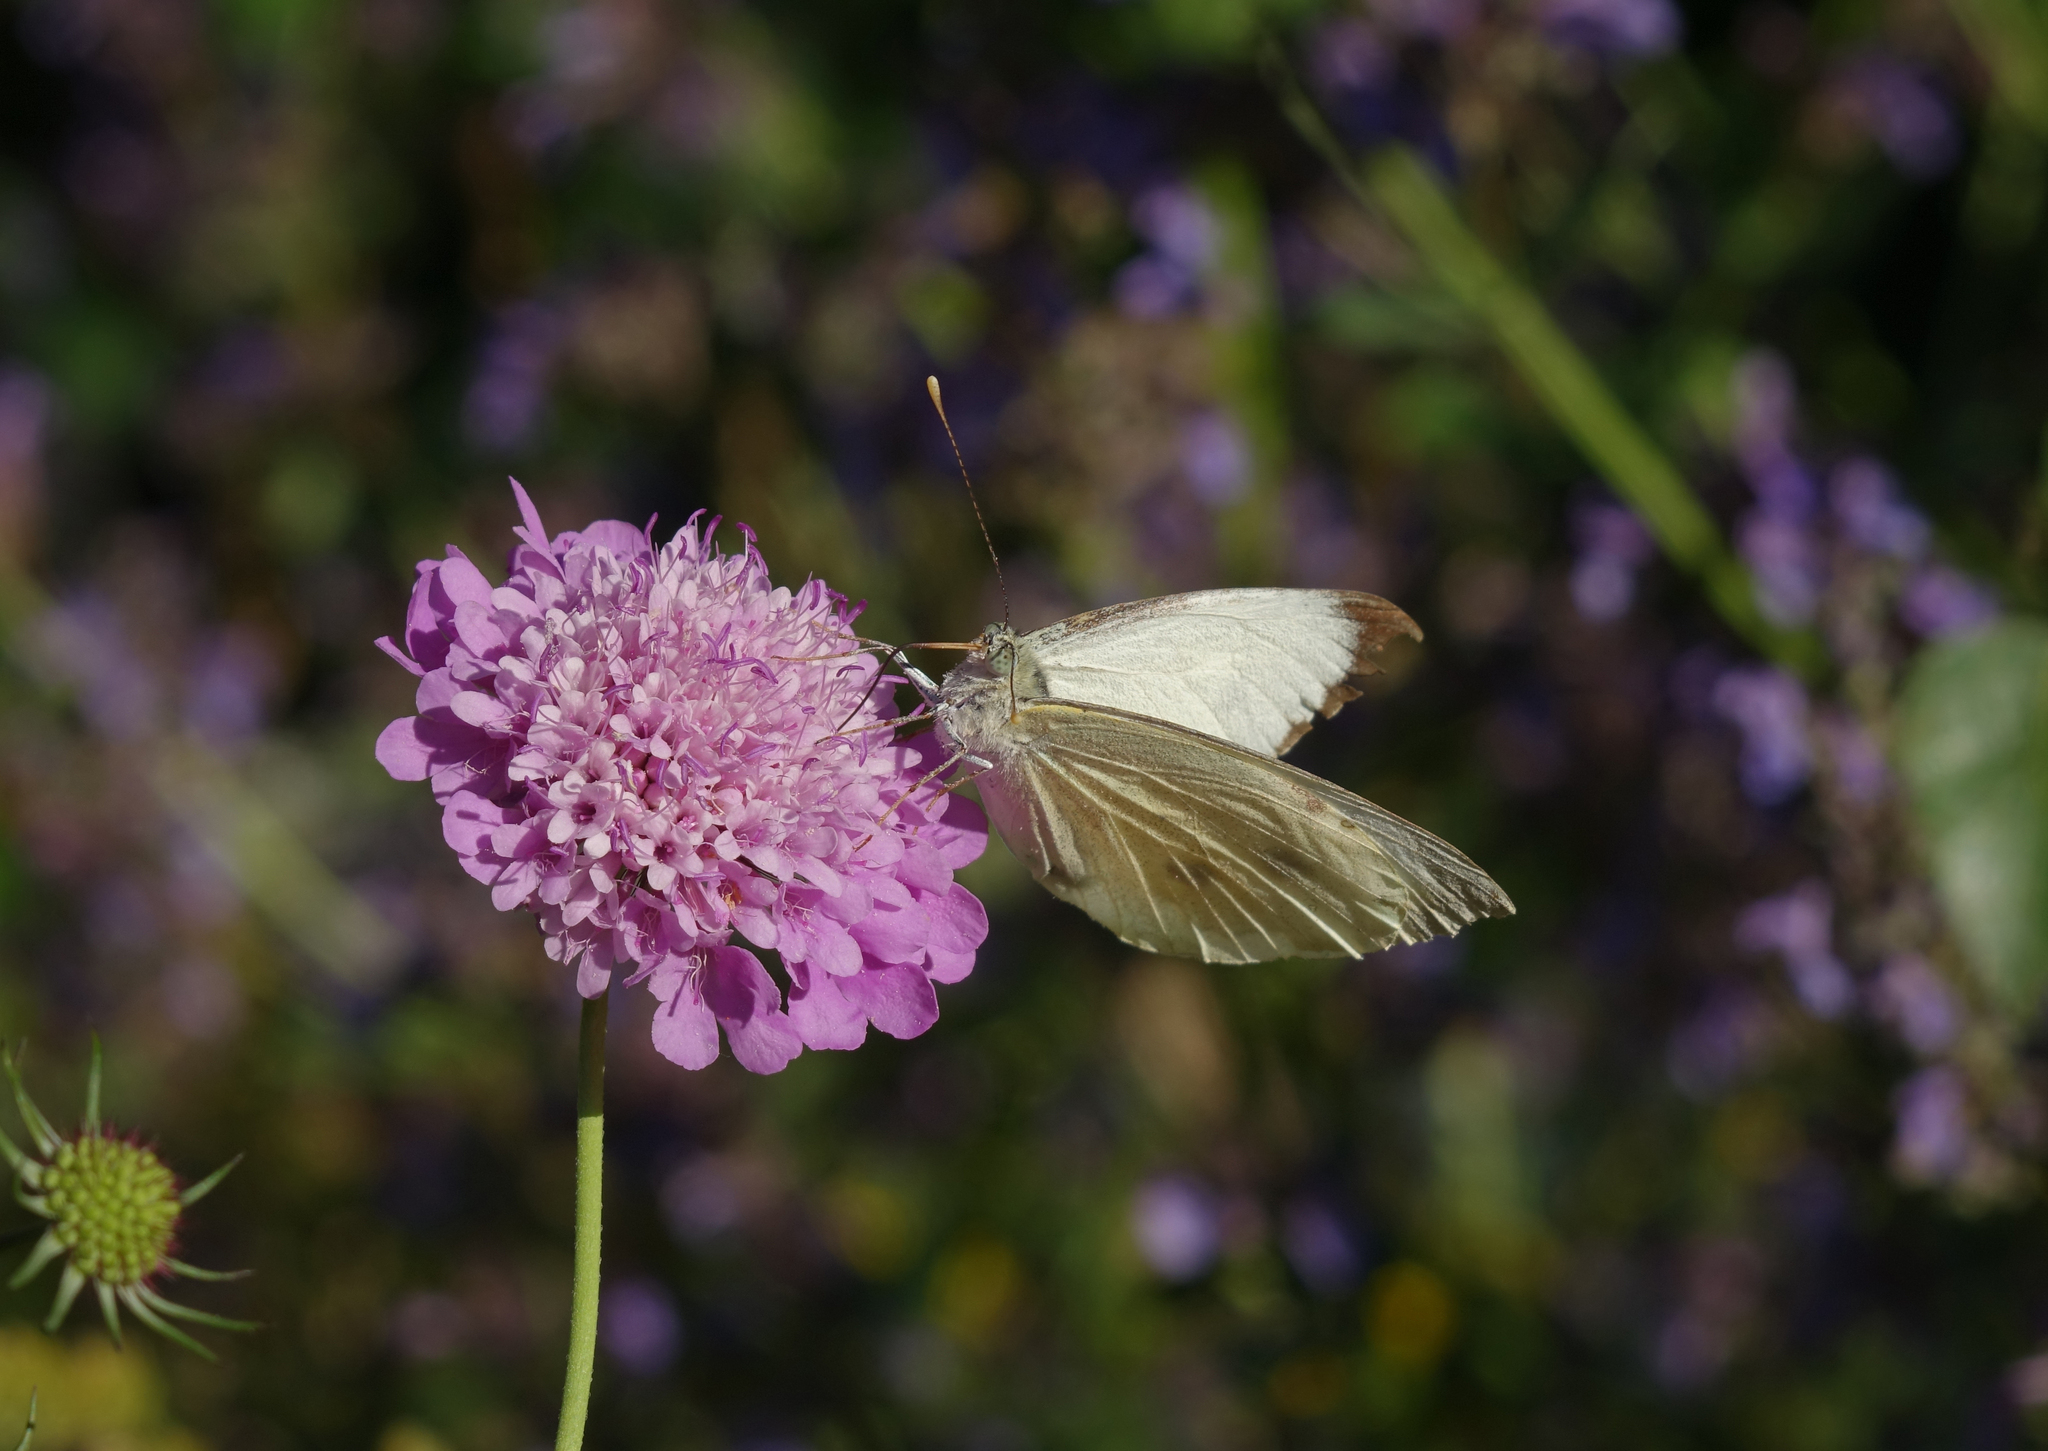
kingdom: Animalia
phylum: Arthropoda
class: Insecta
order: Lepidoptera
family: Pieridae
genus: Pieris
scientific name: Pieris brassicae
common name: Large white
